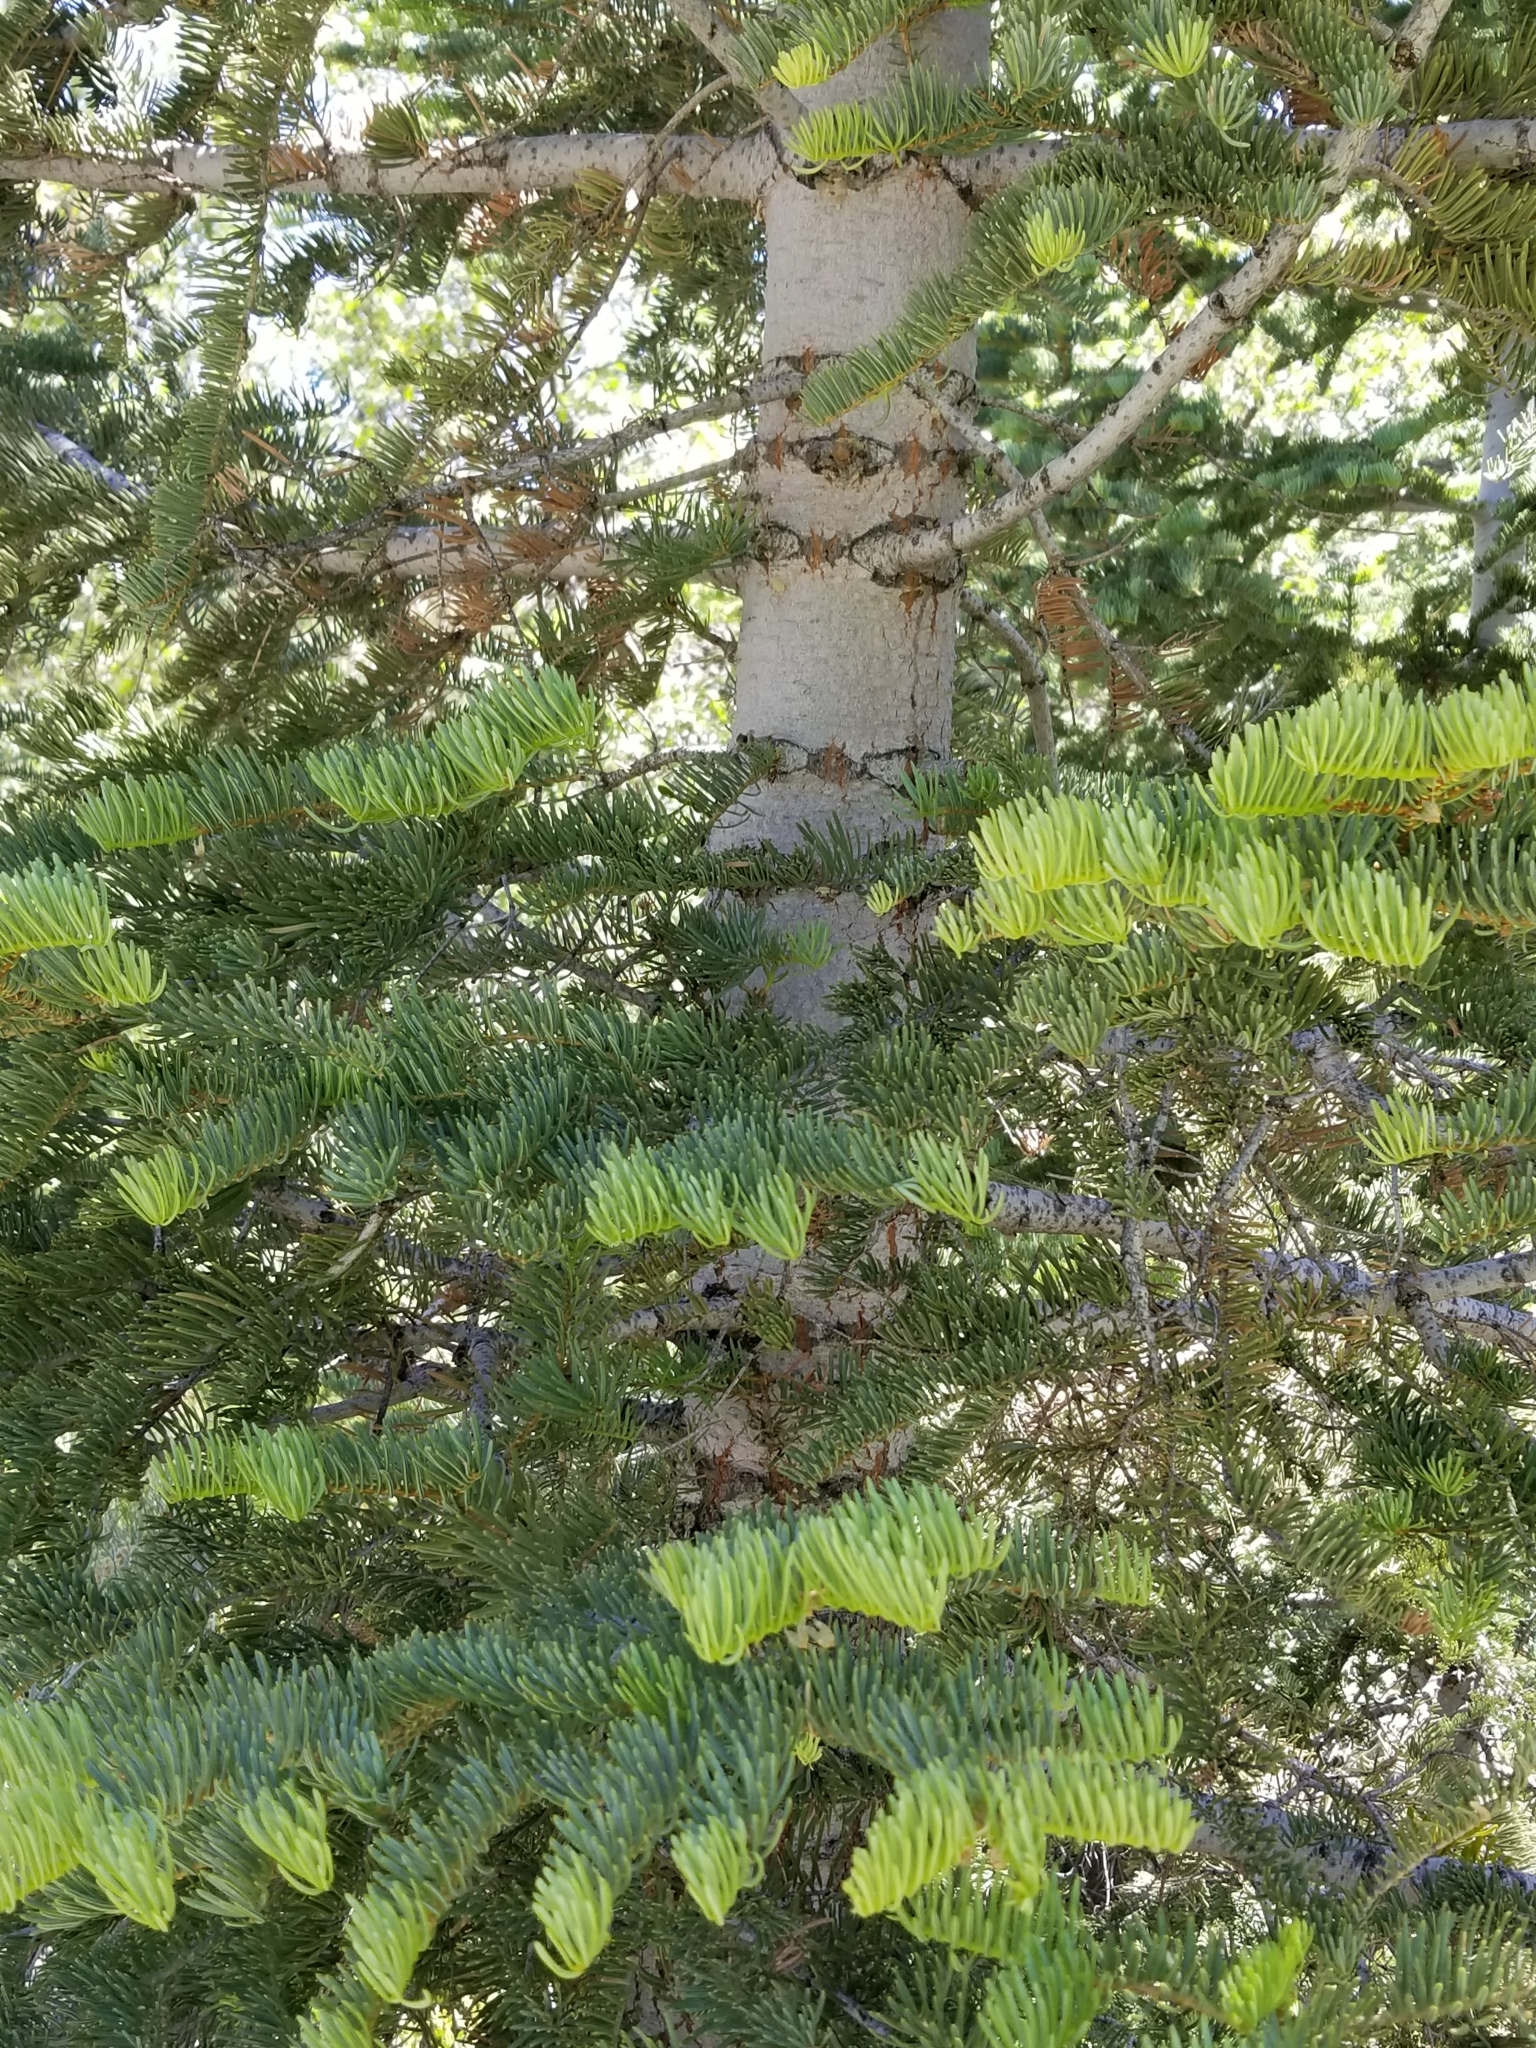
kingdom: Plantae
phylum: Tracheophyta
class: Pinopsida
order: Pinales
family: Pinaceae
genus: Abies
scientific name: Abies concolor
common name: Colorado fir
